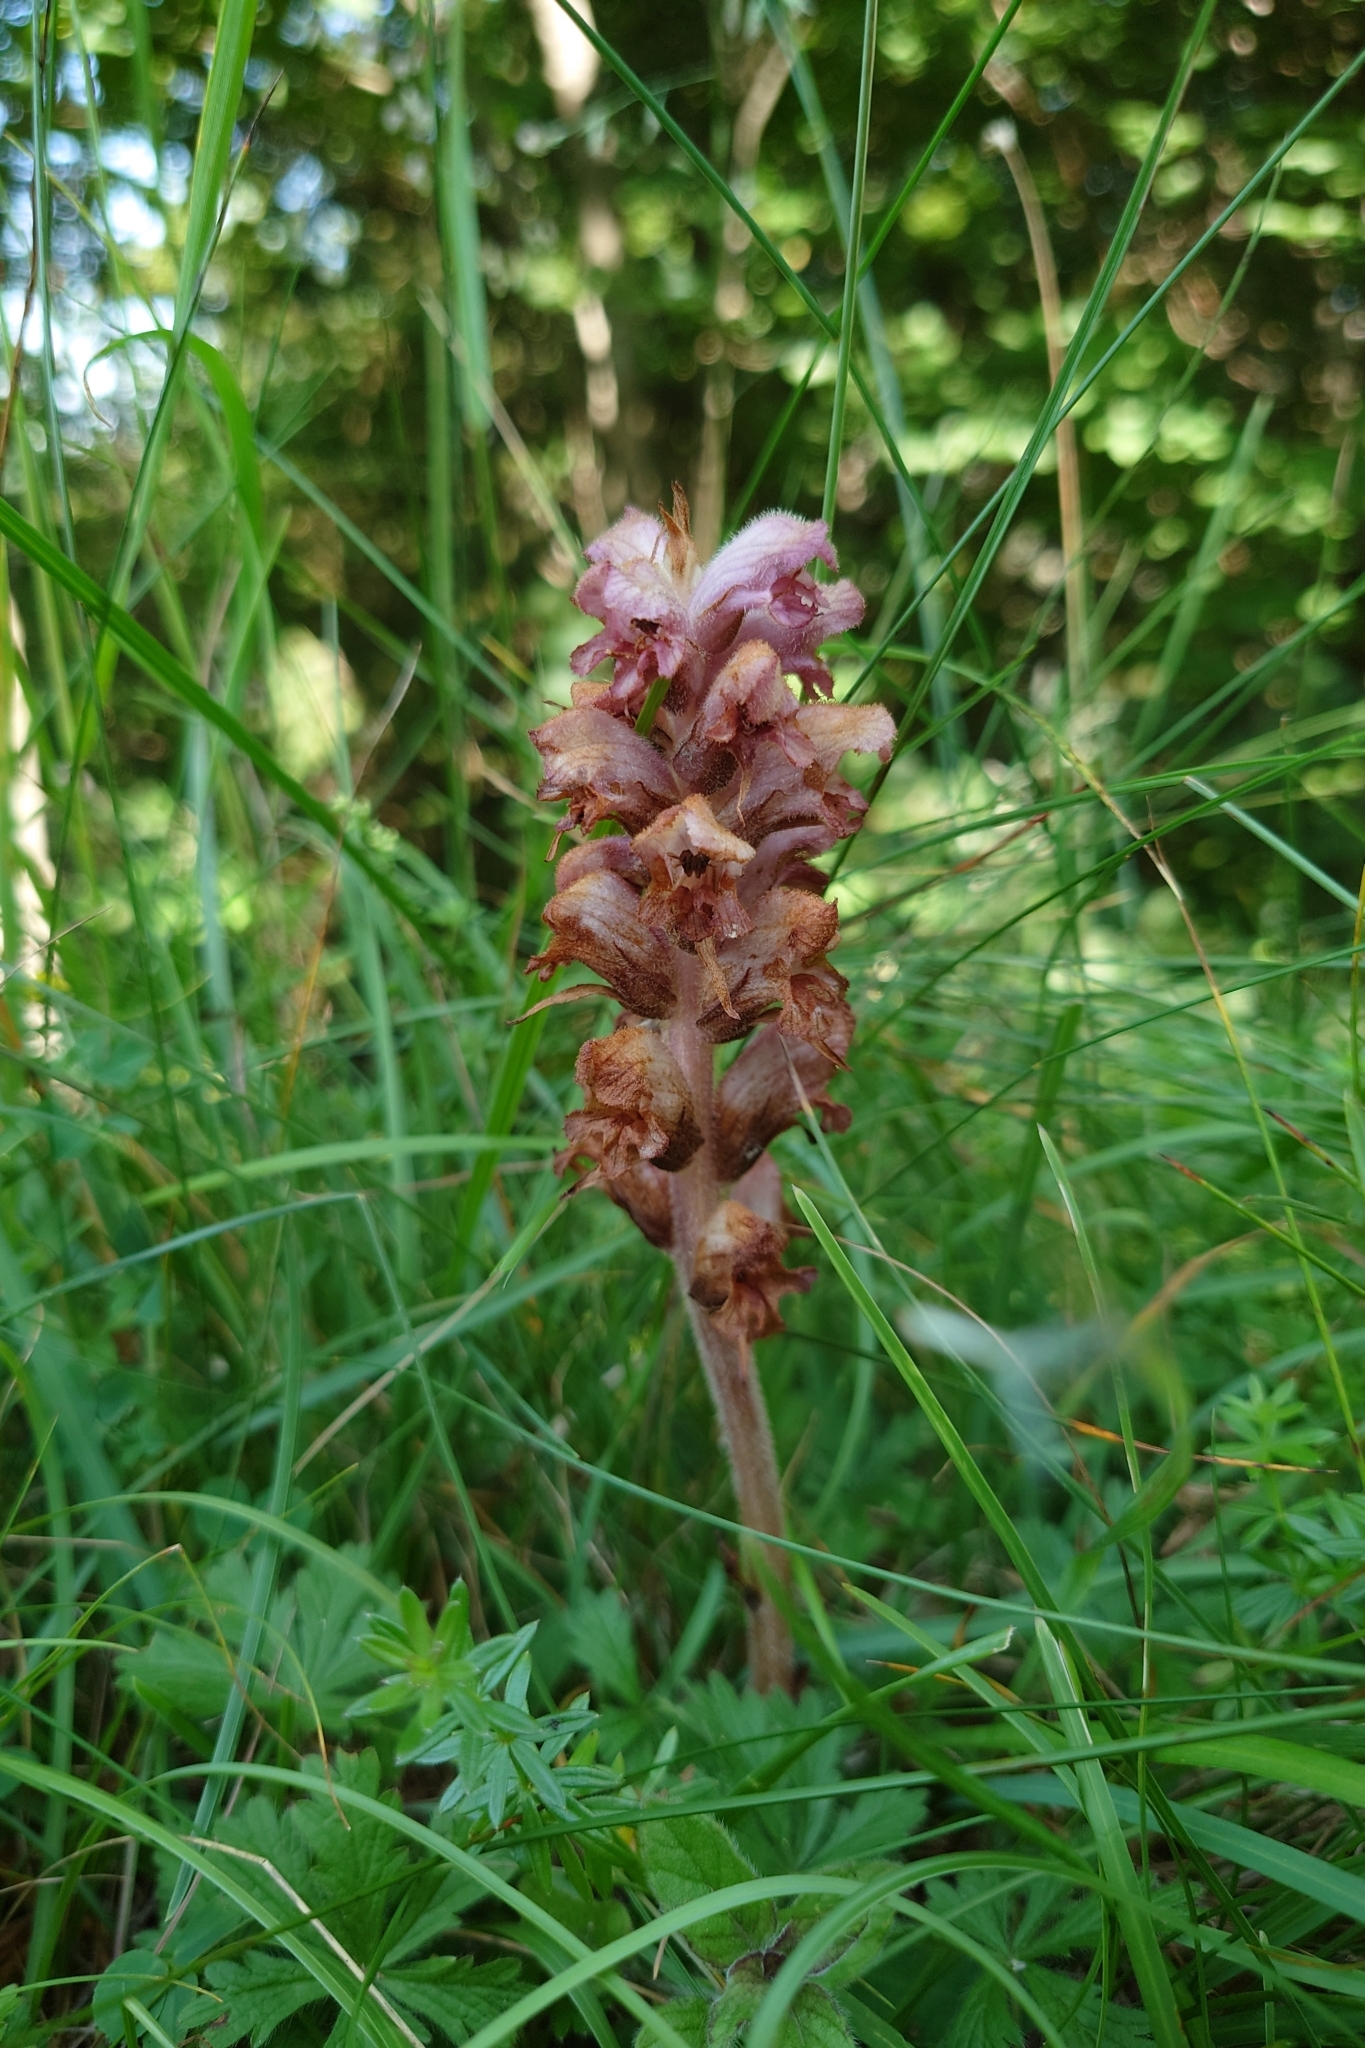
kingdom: Plantae
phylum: Tracheophyta
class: Magnoliopsida
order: Lamiales
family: Orobanchaceae
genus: Orobanche
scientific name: Orobanche caryophyllacea
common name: Bedstraw broomrape
